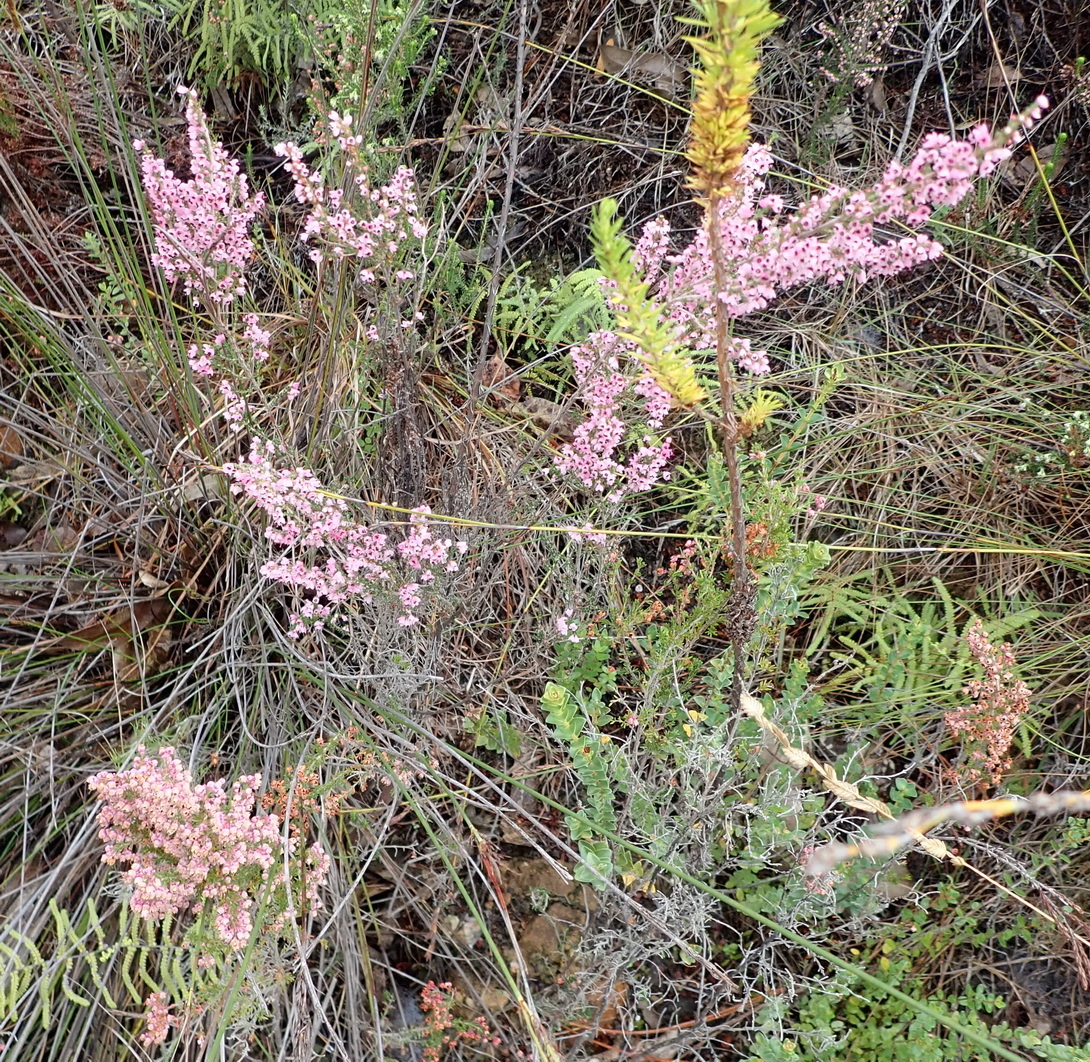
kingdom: Plantae
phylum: Tracheophyta
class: Magnoliopsida
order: Ericales
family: Ericaceae
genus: Erica
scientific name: Erica sparsa
